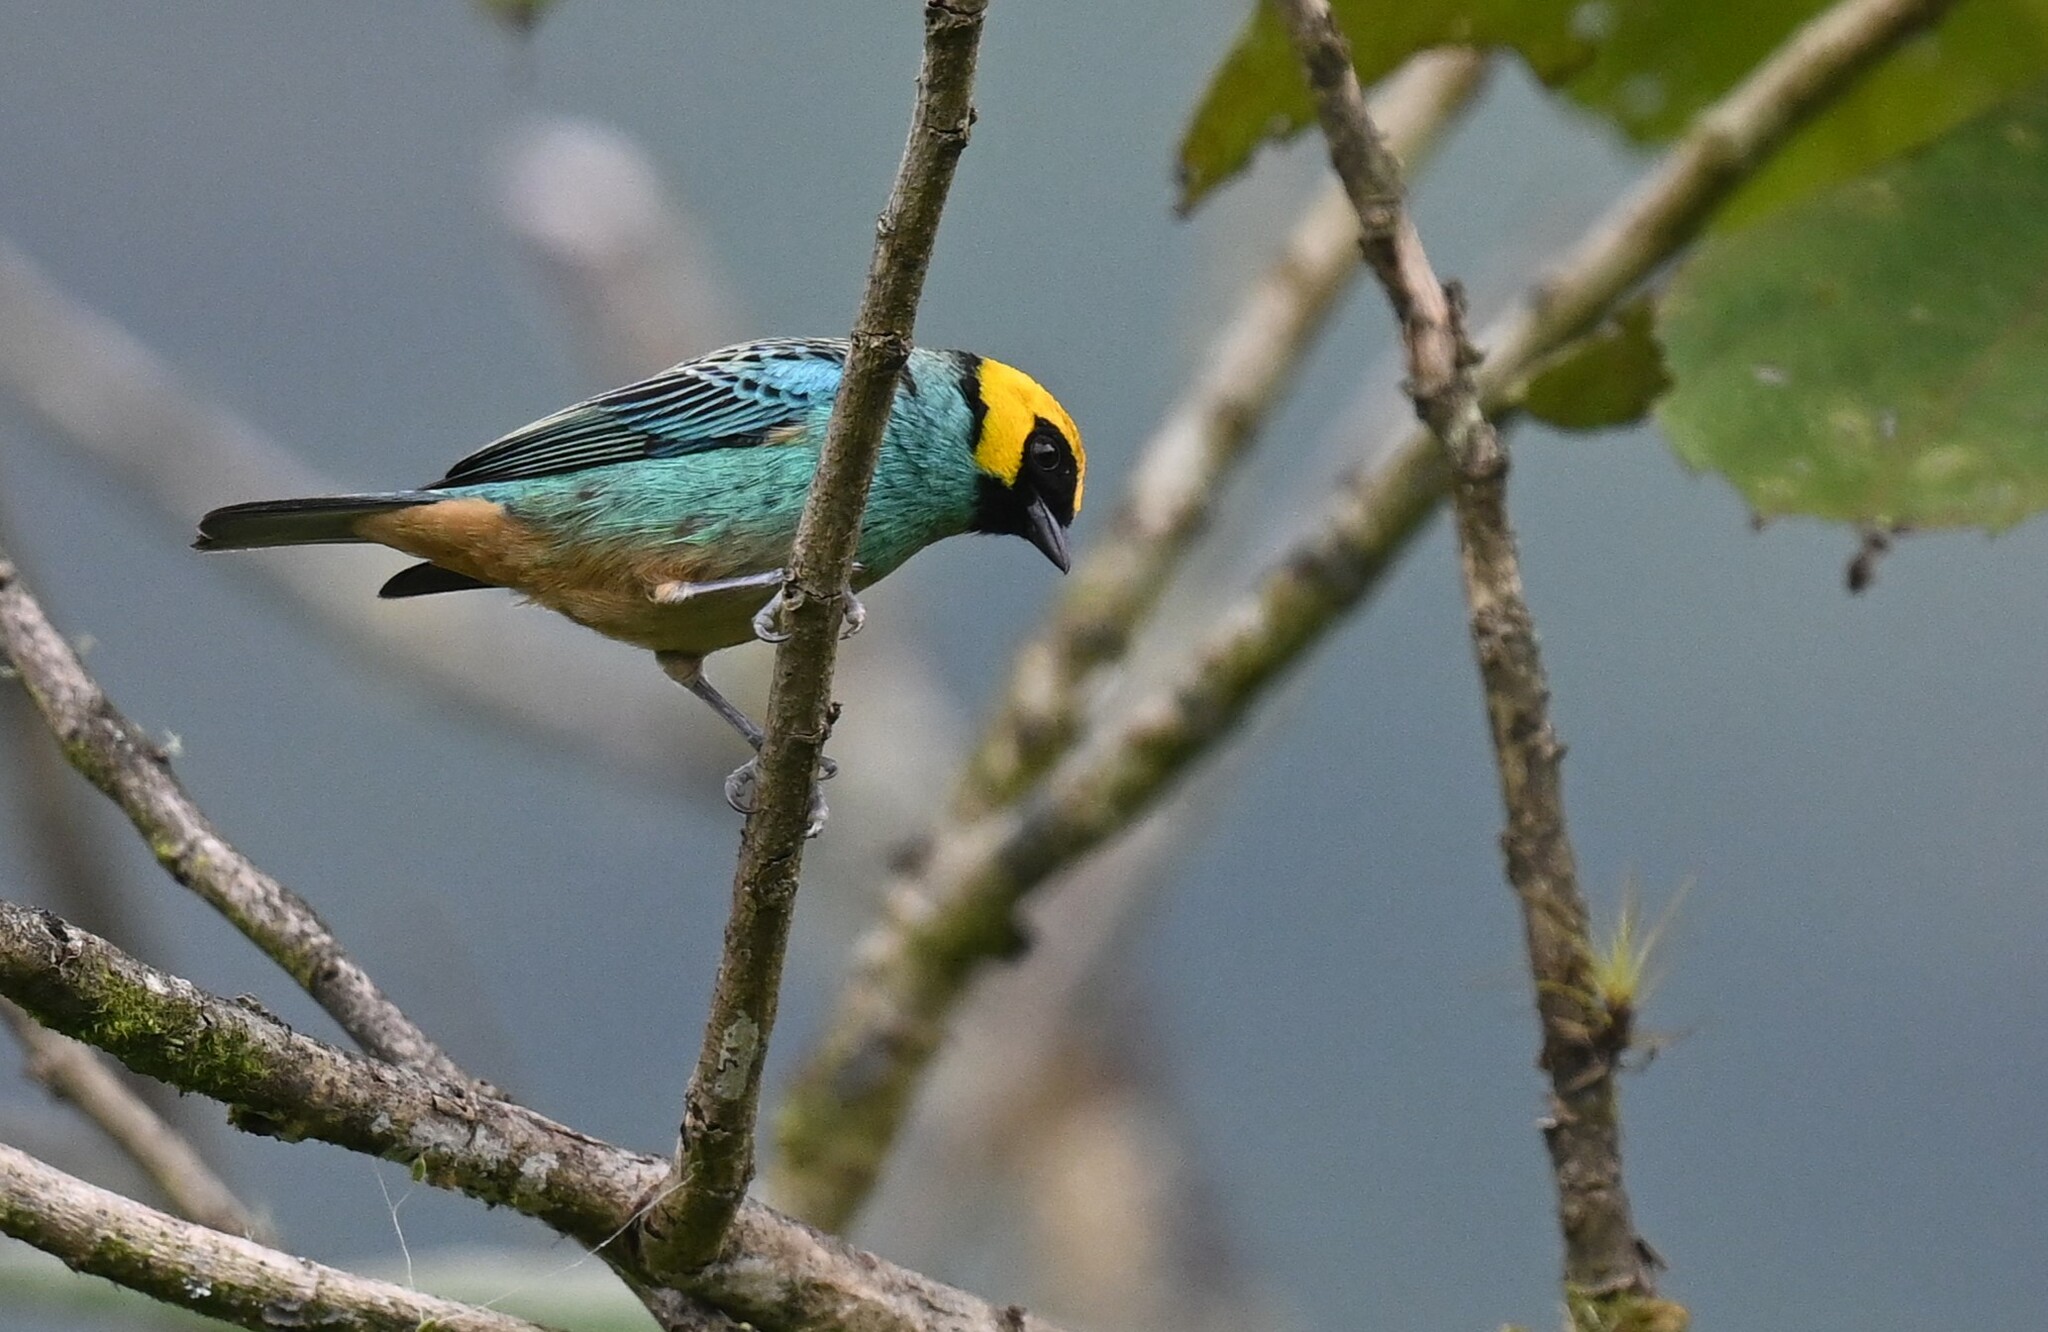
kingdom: Animalia
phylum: Chordata
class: Aves
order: Passeriformes
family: Thraupidae
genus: Tangara
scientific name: Tangara xanthocephala
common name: Saffron-crowned tanager
